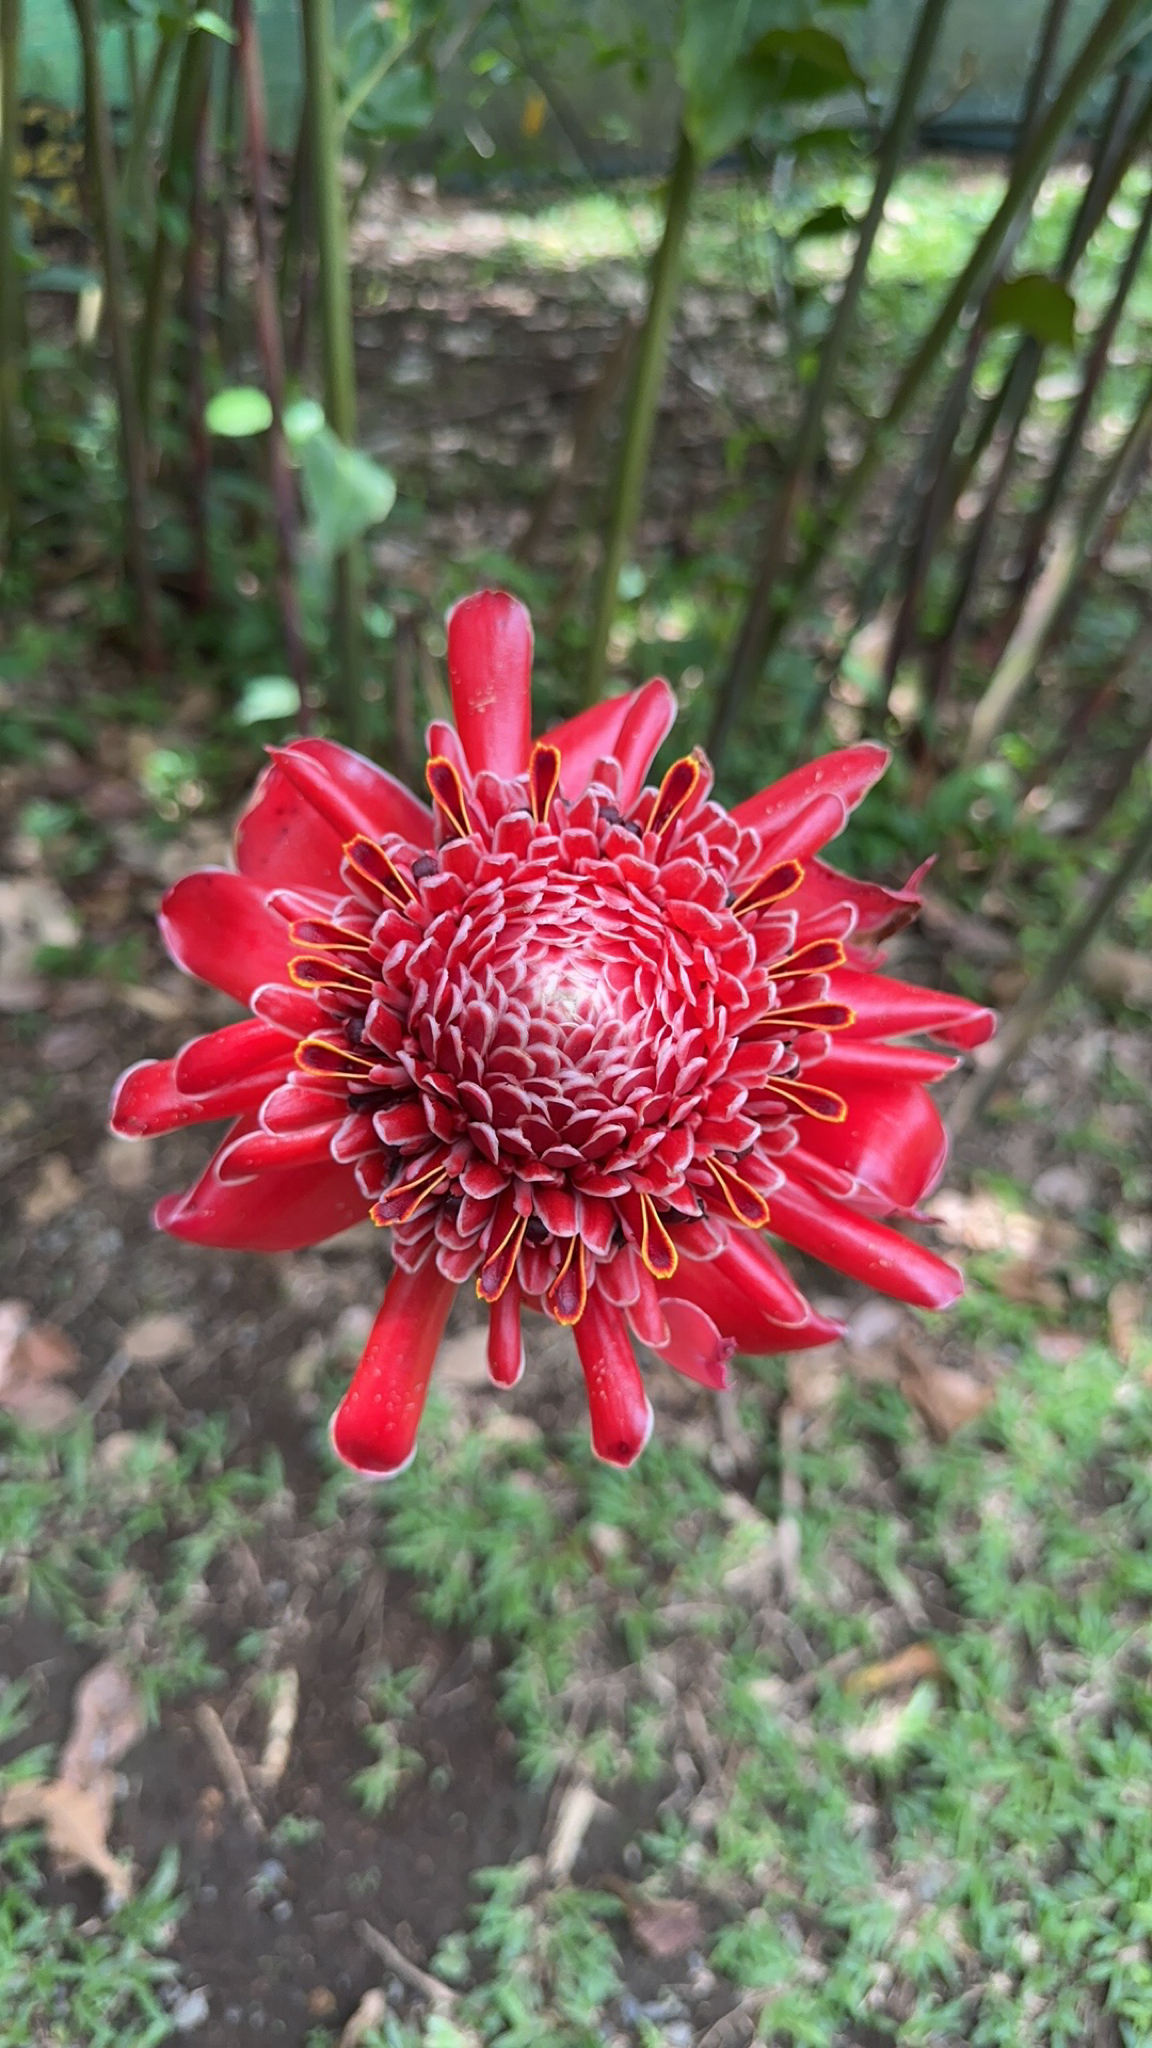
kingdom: Plantae
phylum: Tracheophyta
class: Liliopsida
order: Zingiberales
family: Zingiberaceae
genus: Etlingera
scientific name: Etlingera elatior
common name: Philippine waxflower
